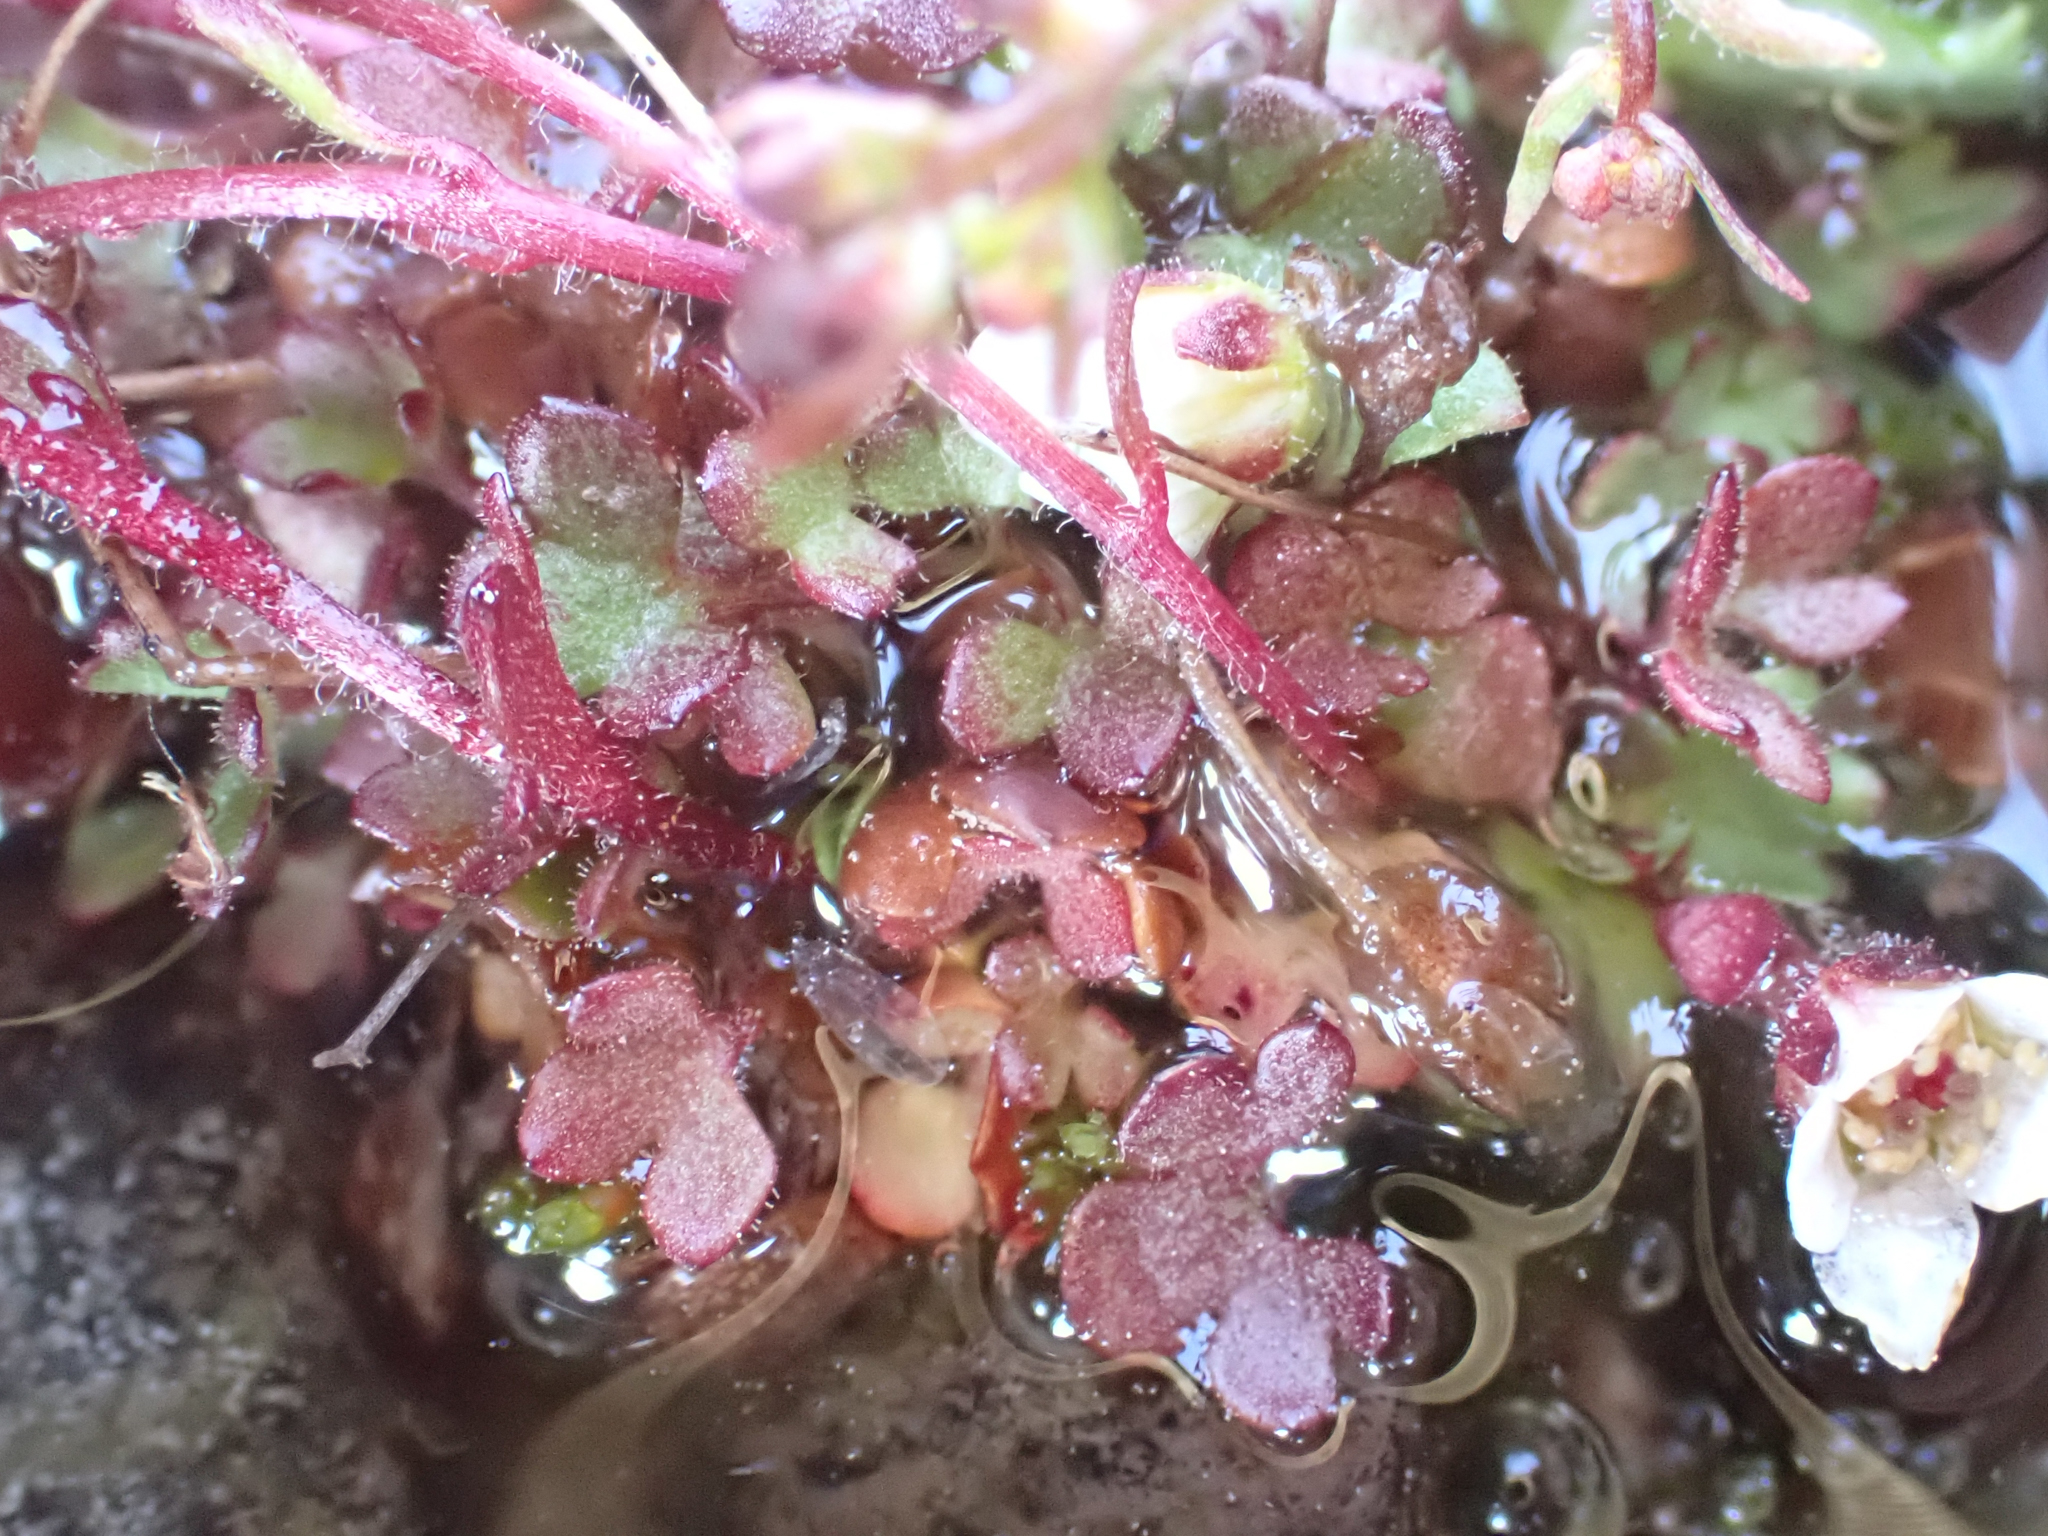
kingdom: Plantae
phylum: Tracheophyta
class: Magnoliopsida
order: Saxifragales
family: Saxifragaceae
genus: Saxifraga
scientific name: Saxifraga hyperborea
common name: Arctic saxifrage
